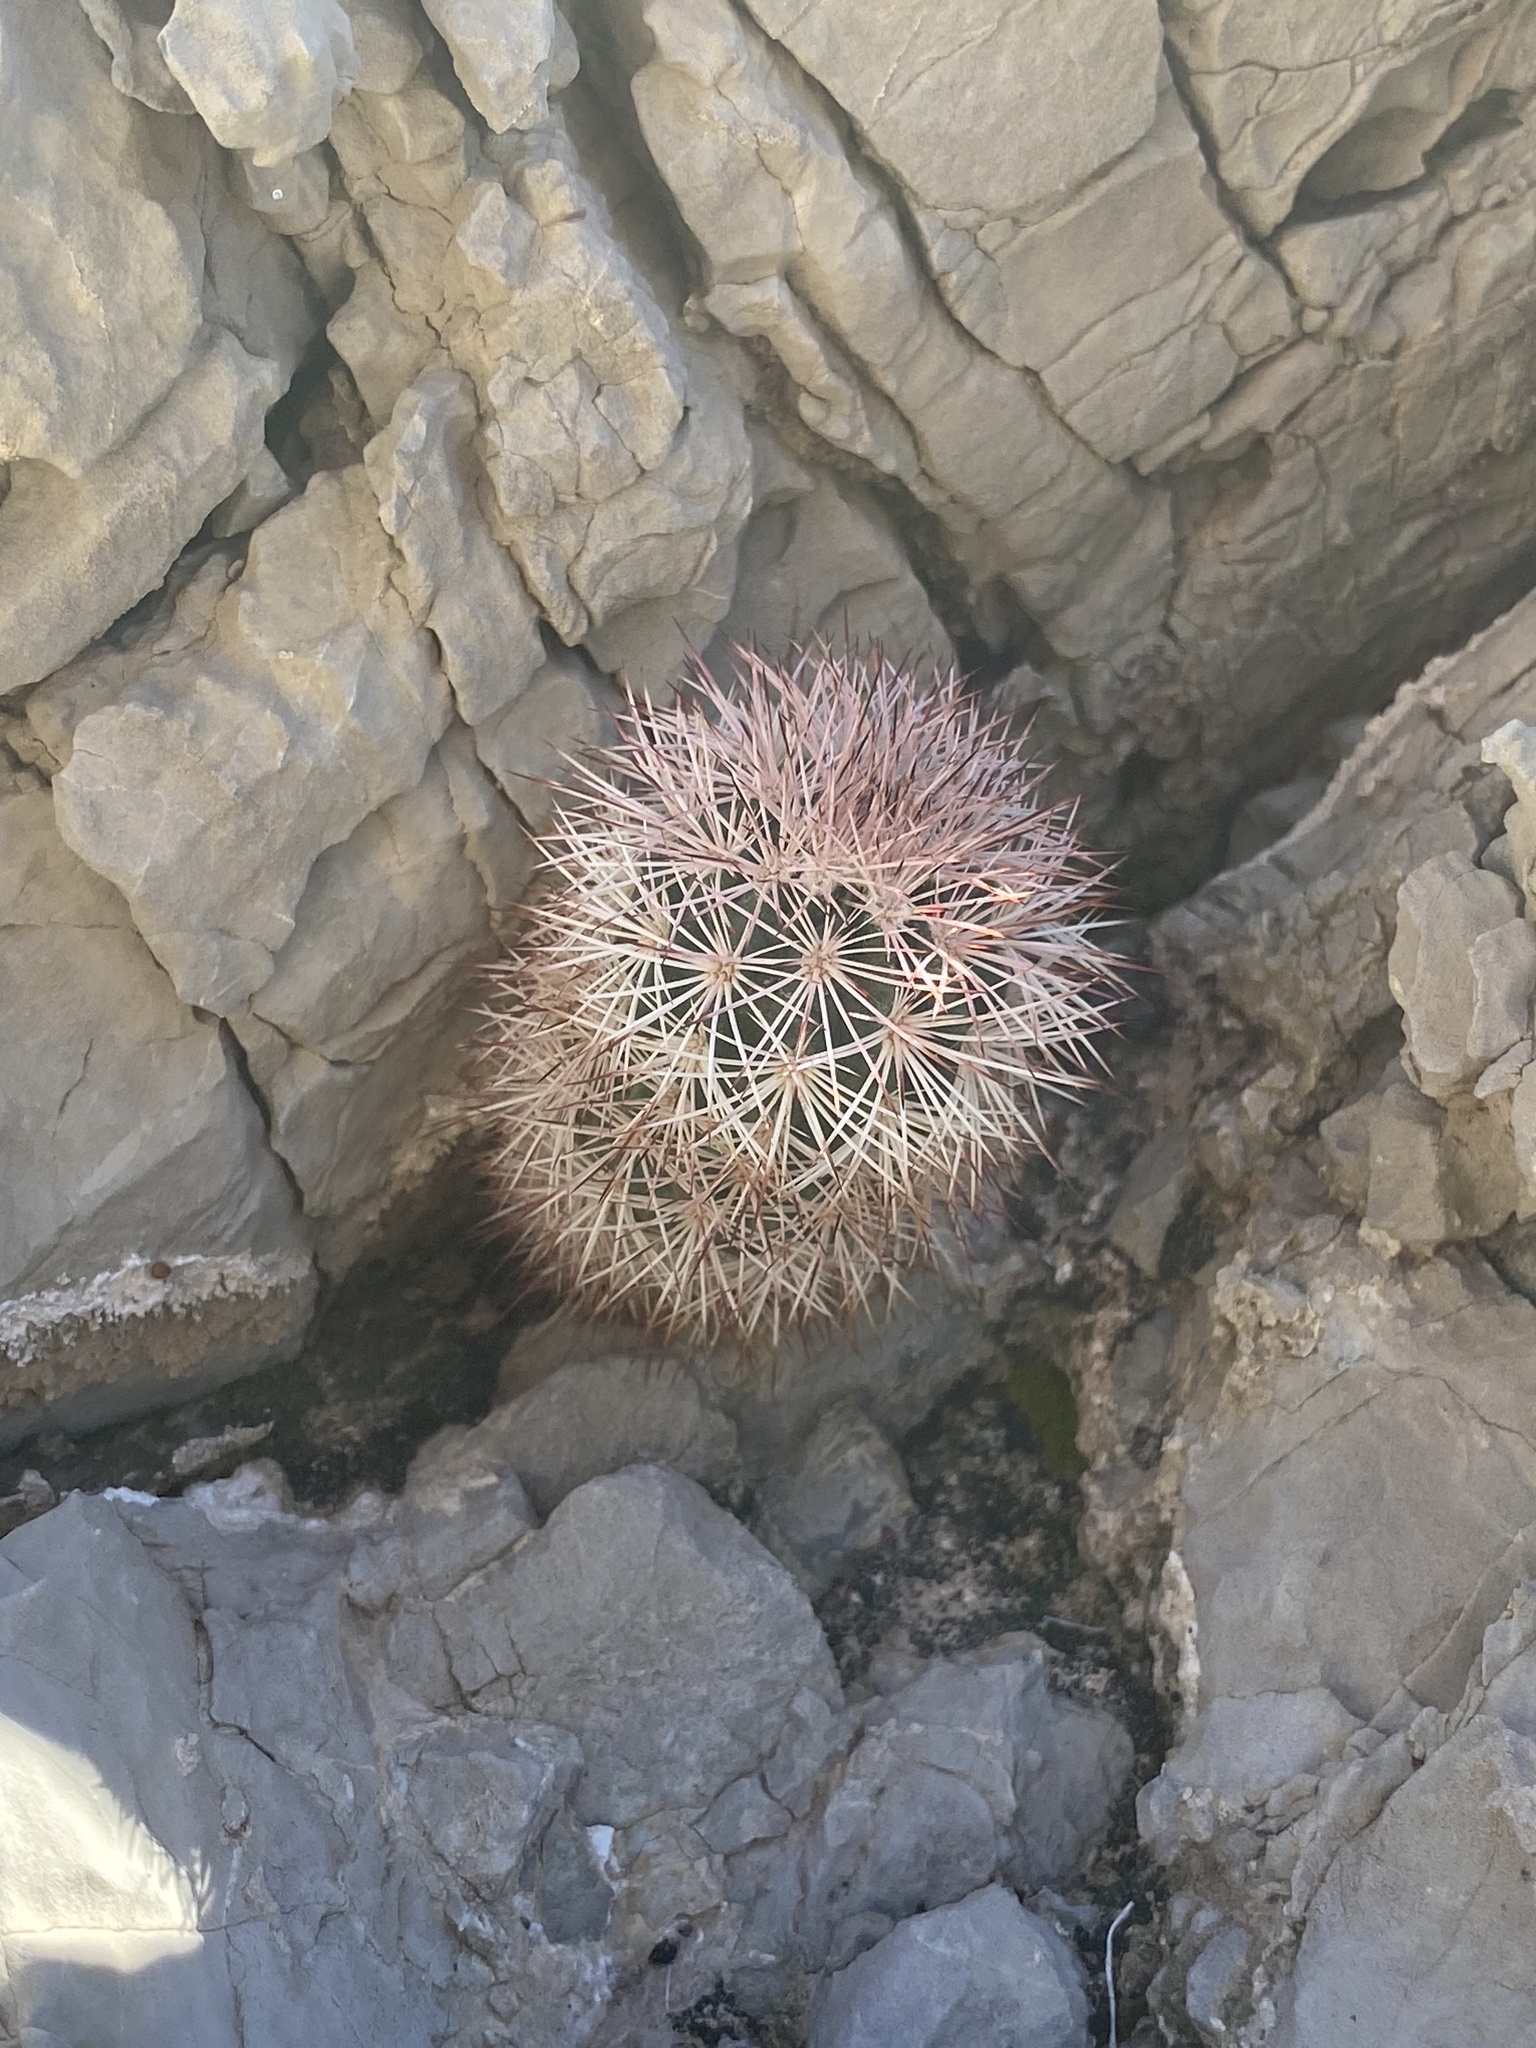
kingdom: Plantae
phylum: Tracheophyta
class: Magnoliopsida
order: Caryophyllales
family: Cactaceae
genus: Echinocereus
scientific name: Echinocereus dasyacanthus
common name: Spiny hedgehog cactus
